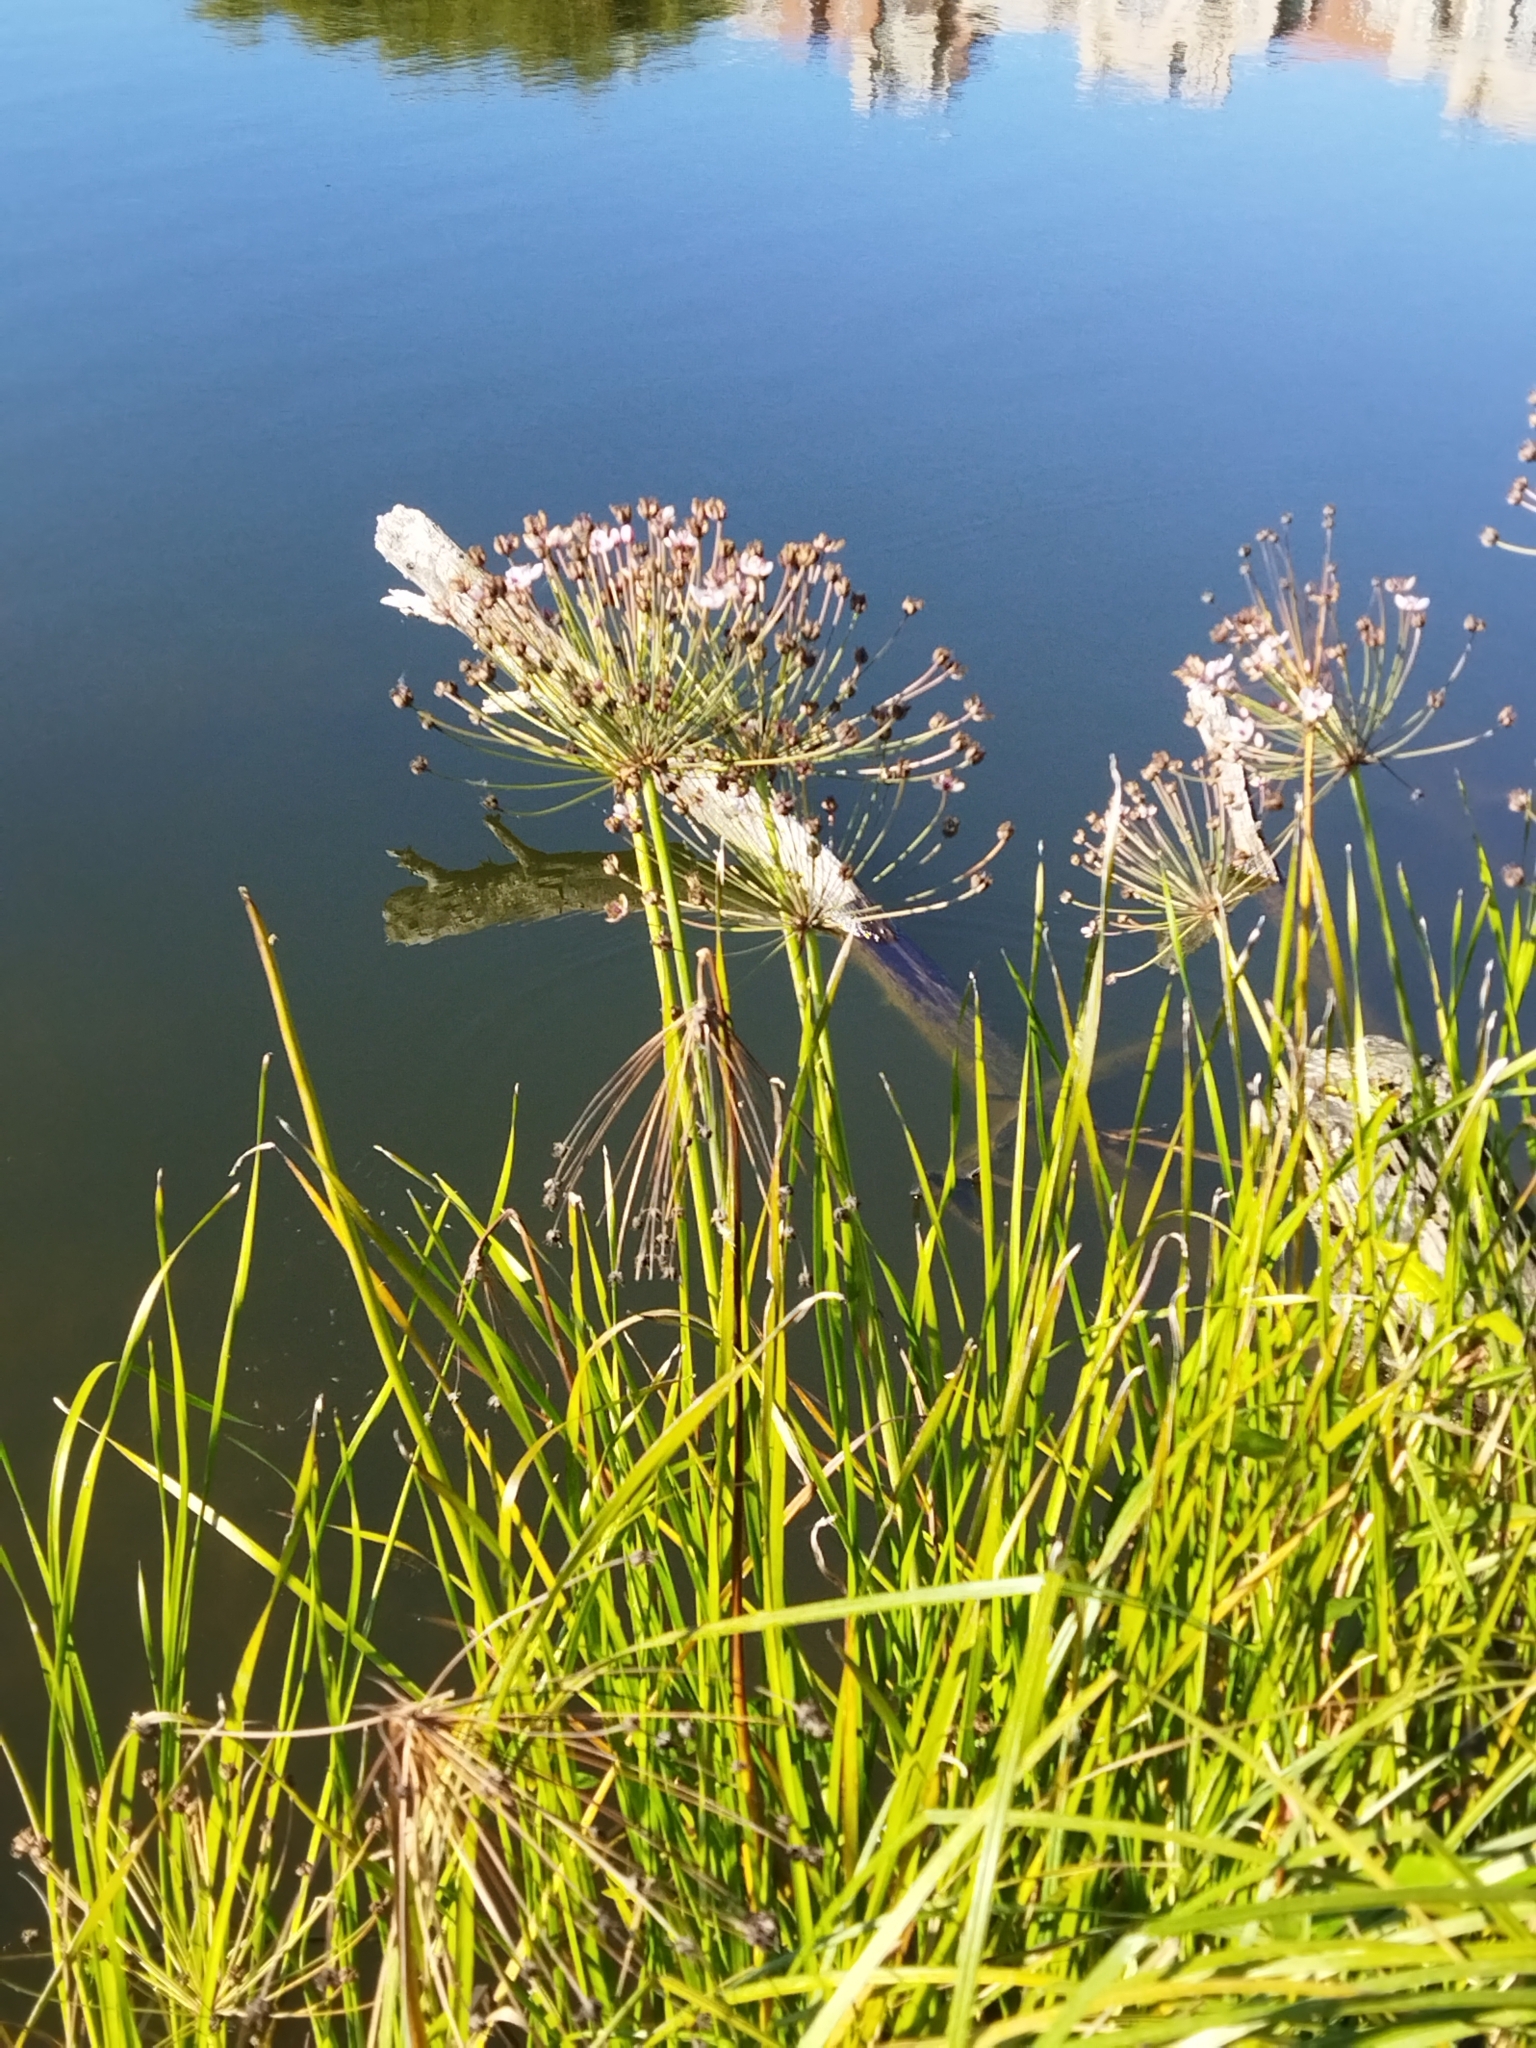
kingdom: Plantae
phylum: Tracheophyta
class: Liliopsida
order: Alismatales
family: Butomaceae
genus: Butomus
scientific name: Butomus umbellatus
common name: Flowering-rush
